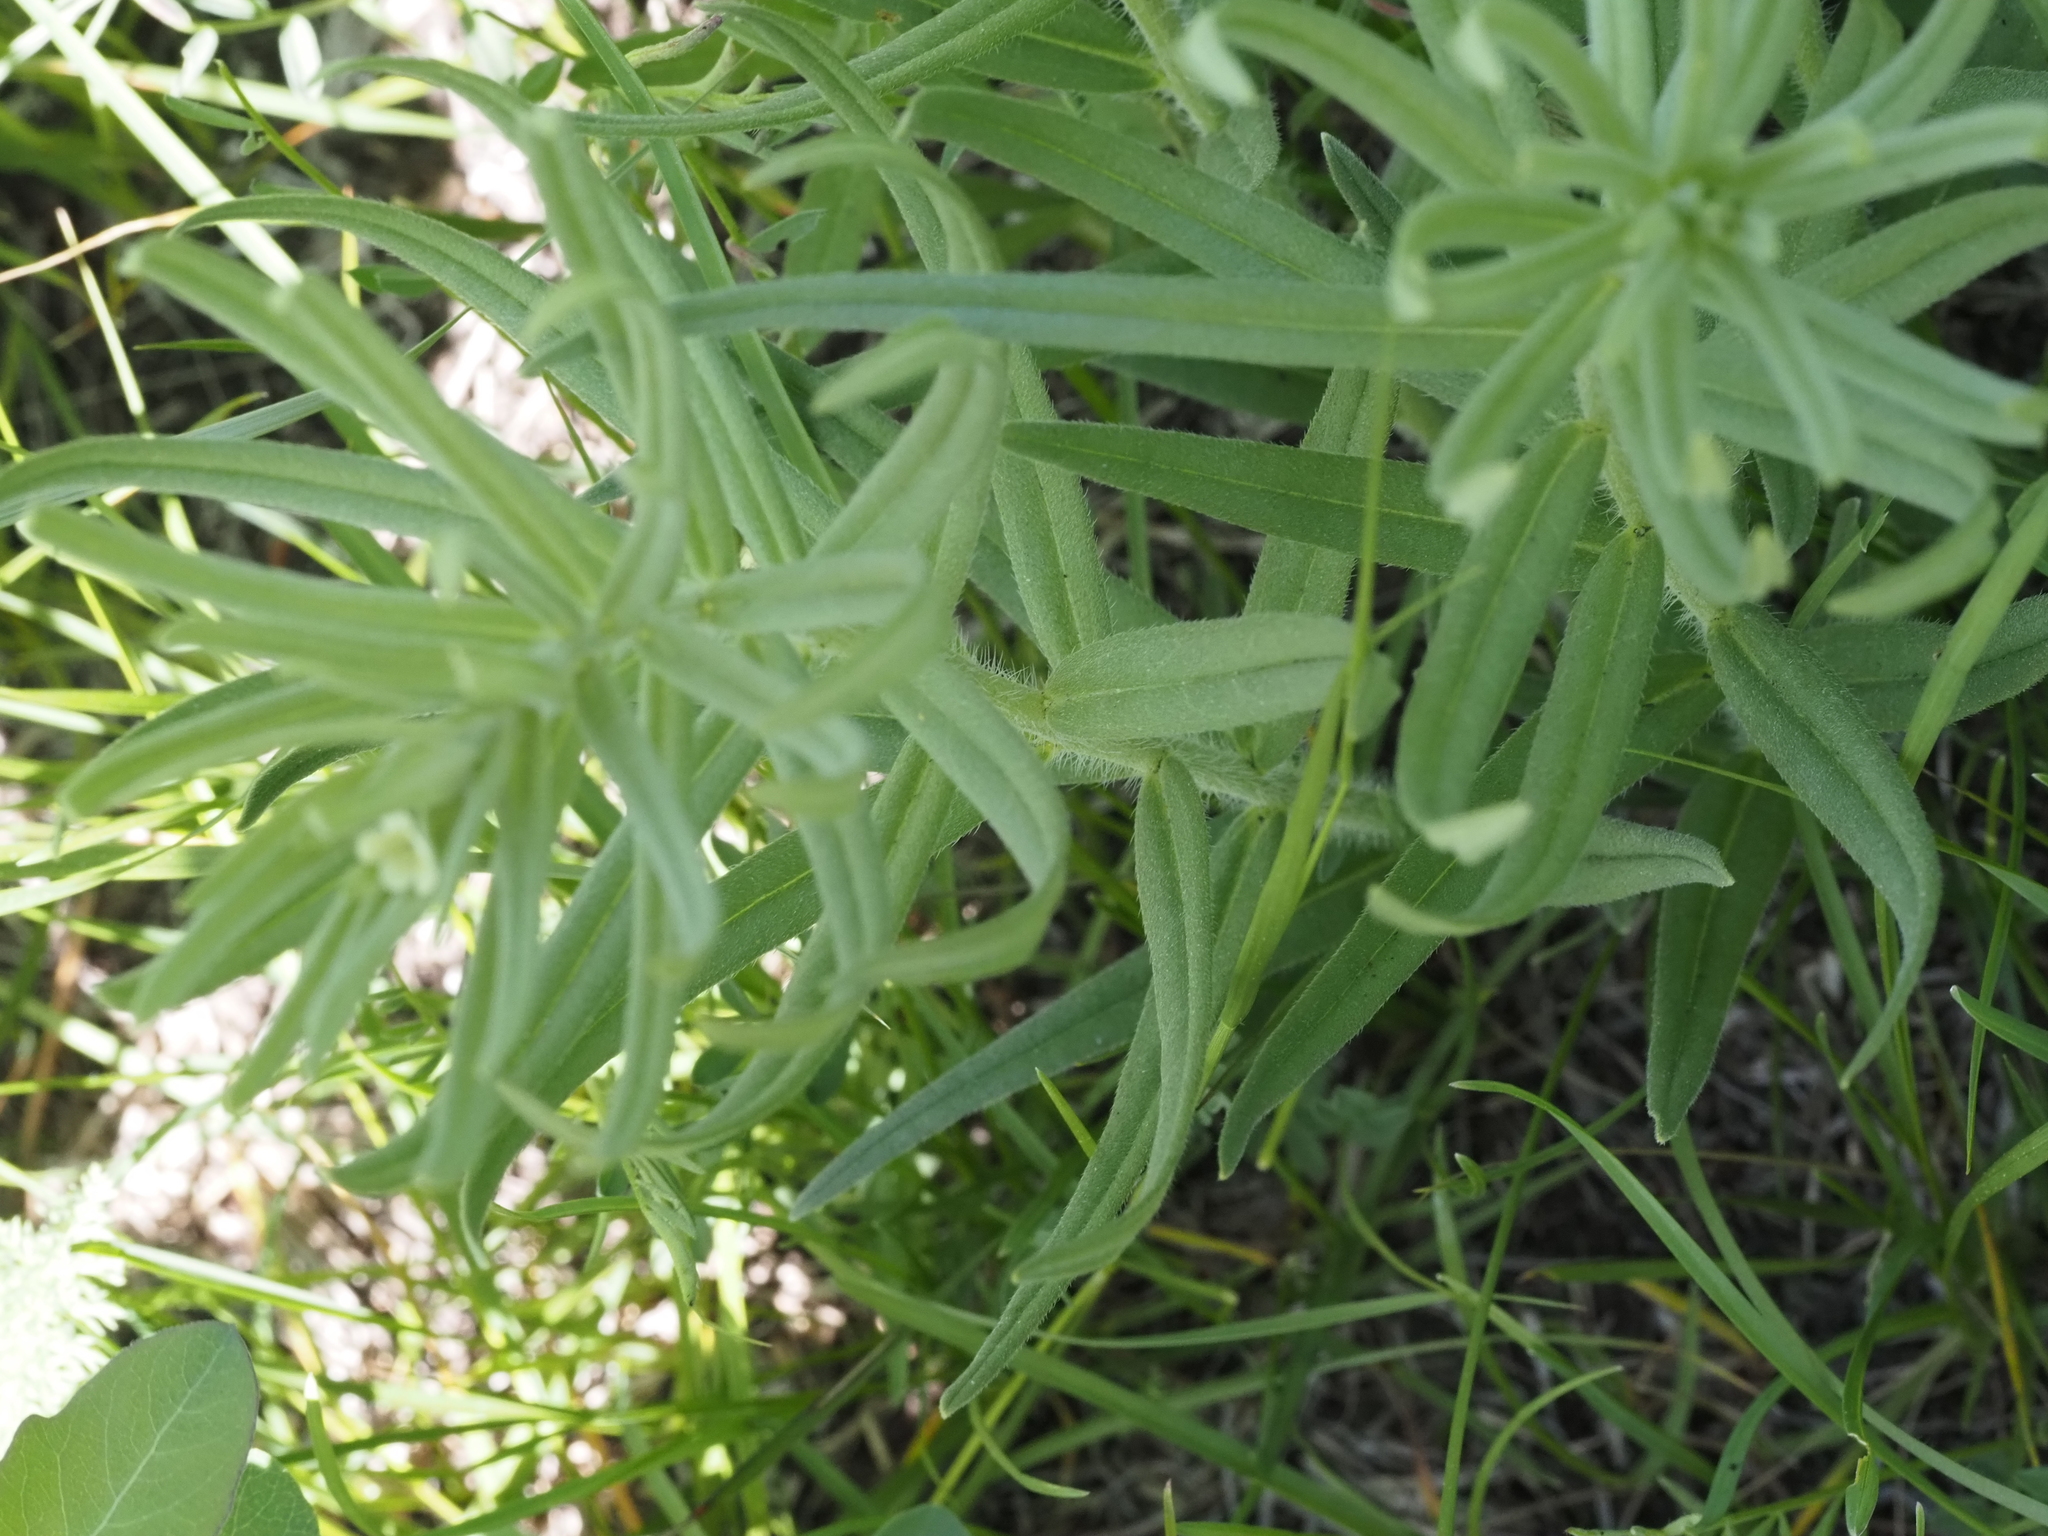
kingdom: Plantae
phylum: Tracheophyta
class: Magnoliopsida
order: Boraginales
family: Boraginaceae
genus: Lithospermum
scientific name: Lithospermum ruderale
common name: Western gromwell
